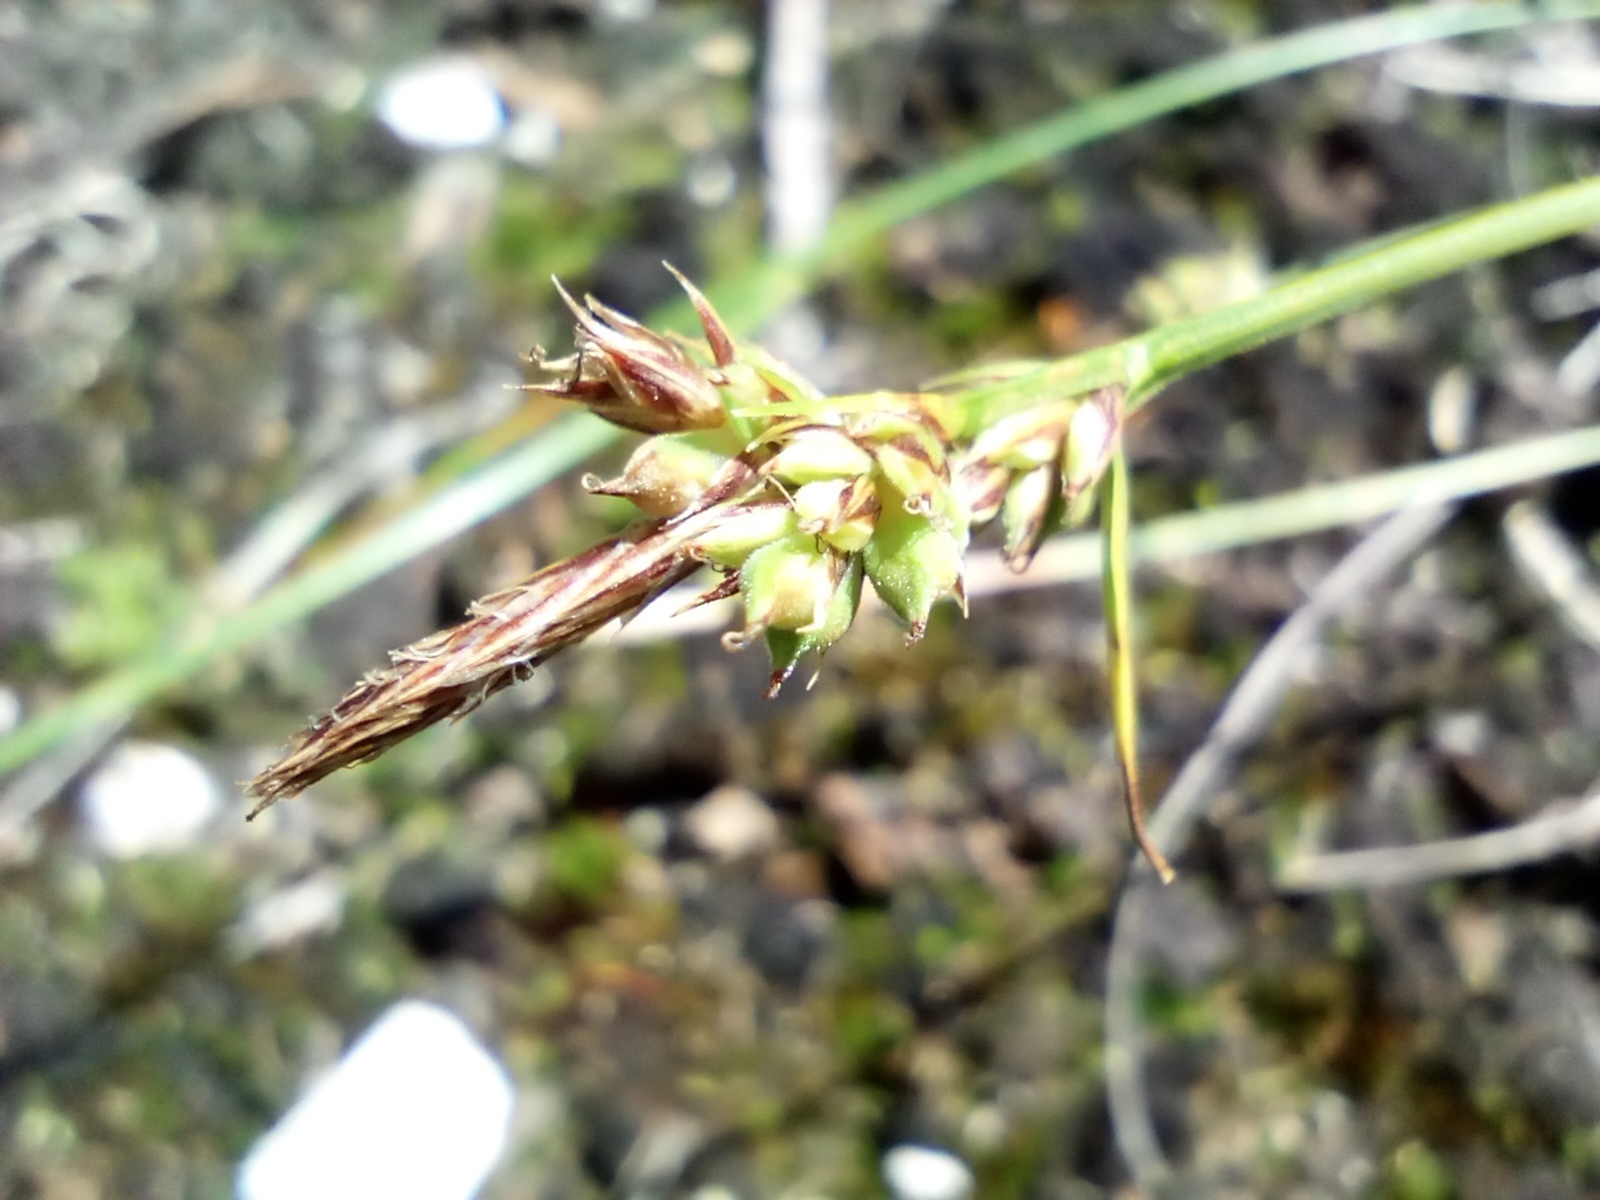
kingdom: Plantae
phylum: Tracheophyta
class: Liliopsida
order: Poales
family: Cyperaceae
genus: Carex
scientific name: Carex pilulifera
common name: Pill sedge
